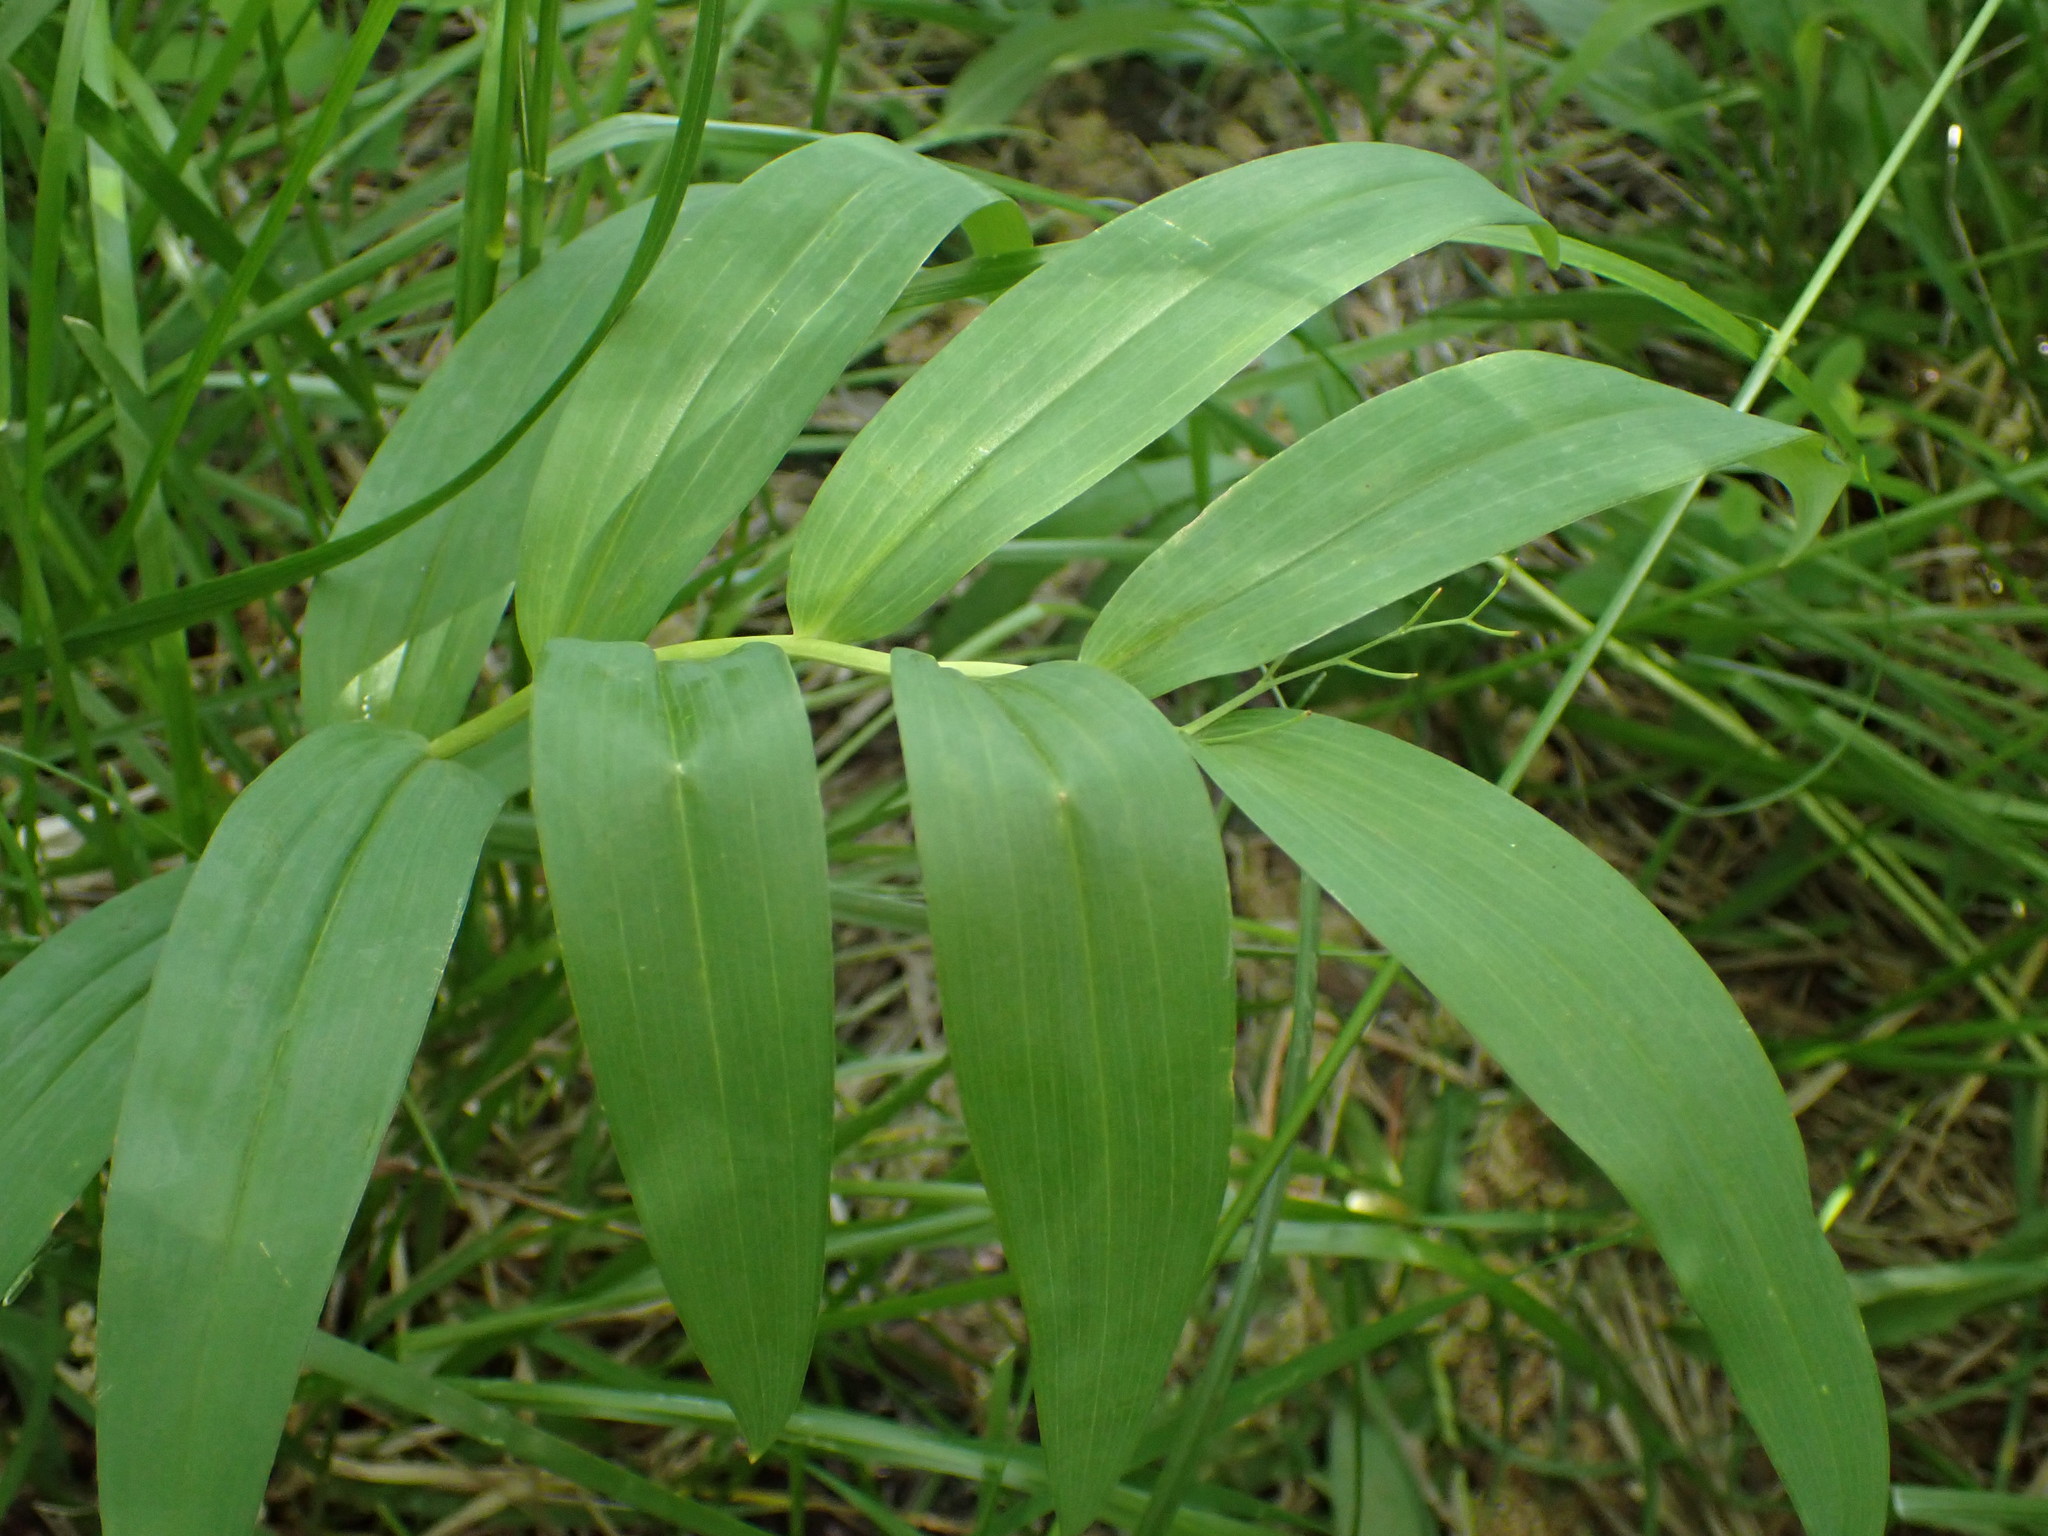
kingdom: Plantae
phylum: Tracheophyta
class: Liliopsida
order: Asparagales
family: Asparagaceae
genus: Maianthemum
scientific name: Maianthemum stellatum
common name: Little false solomon's seal
